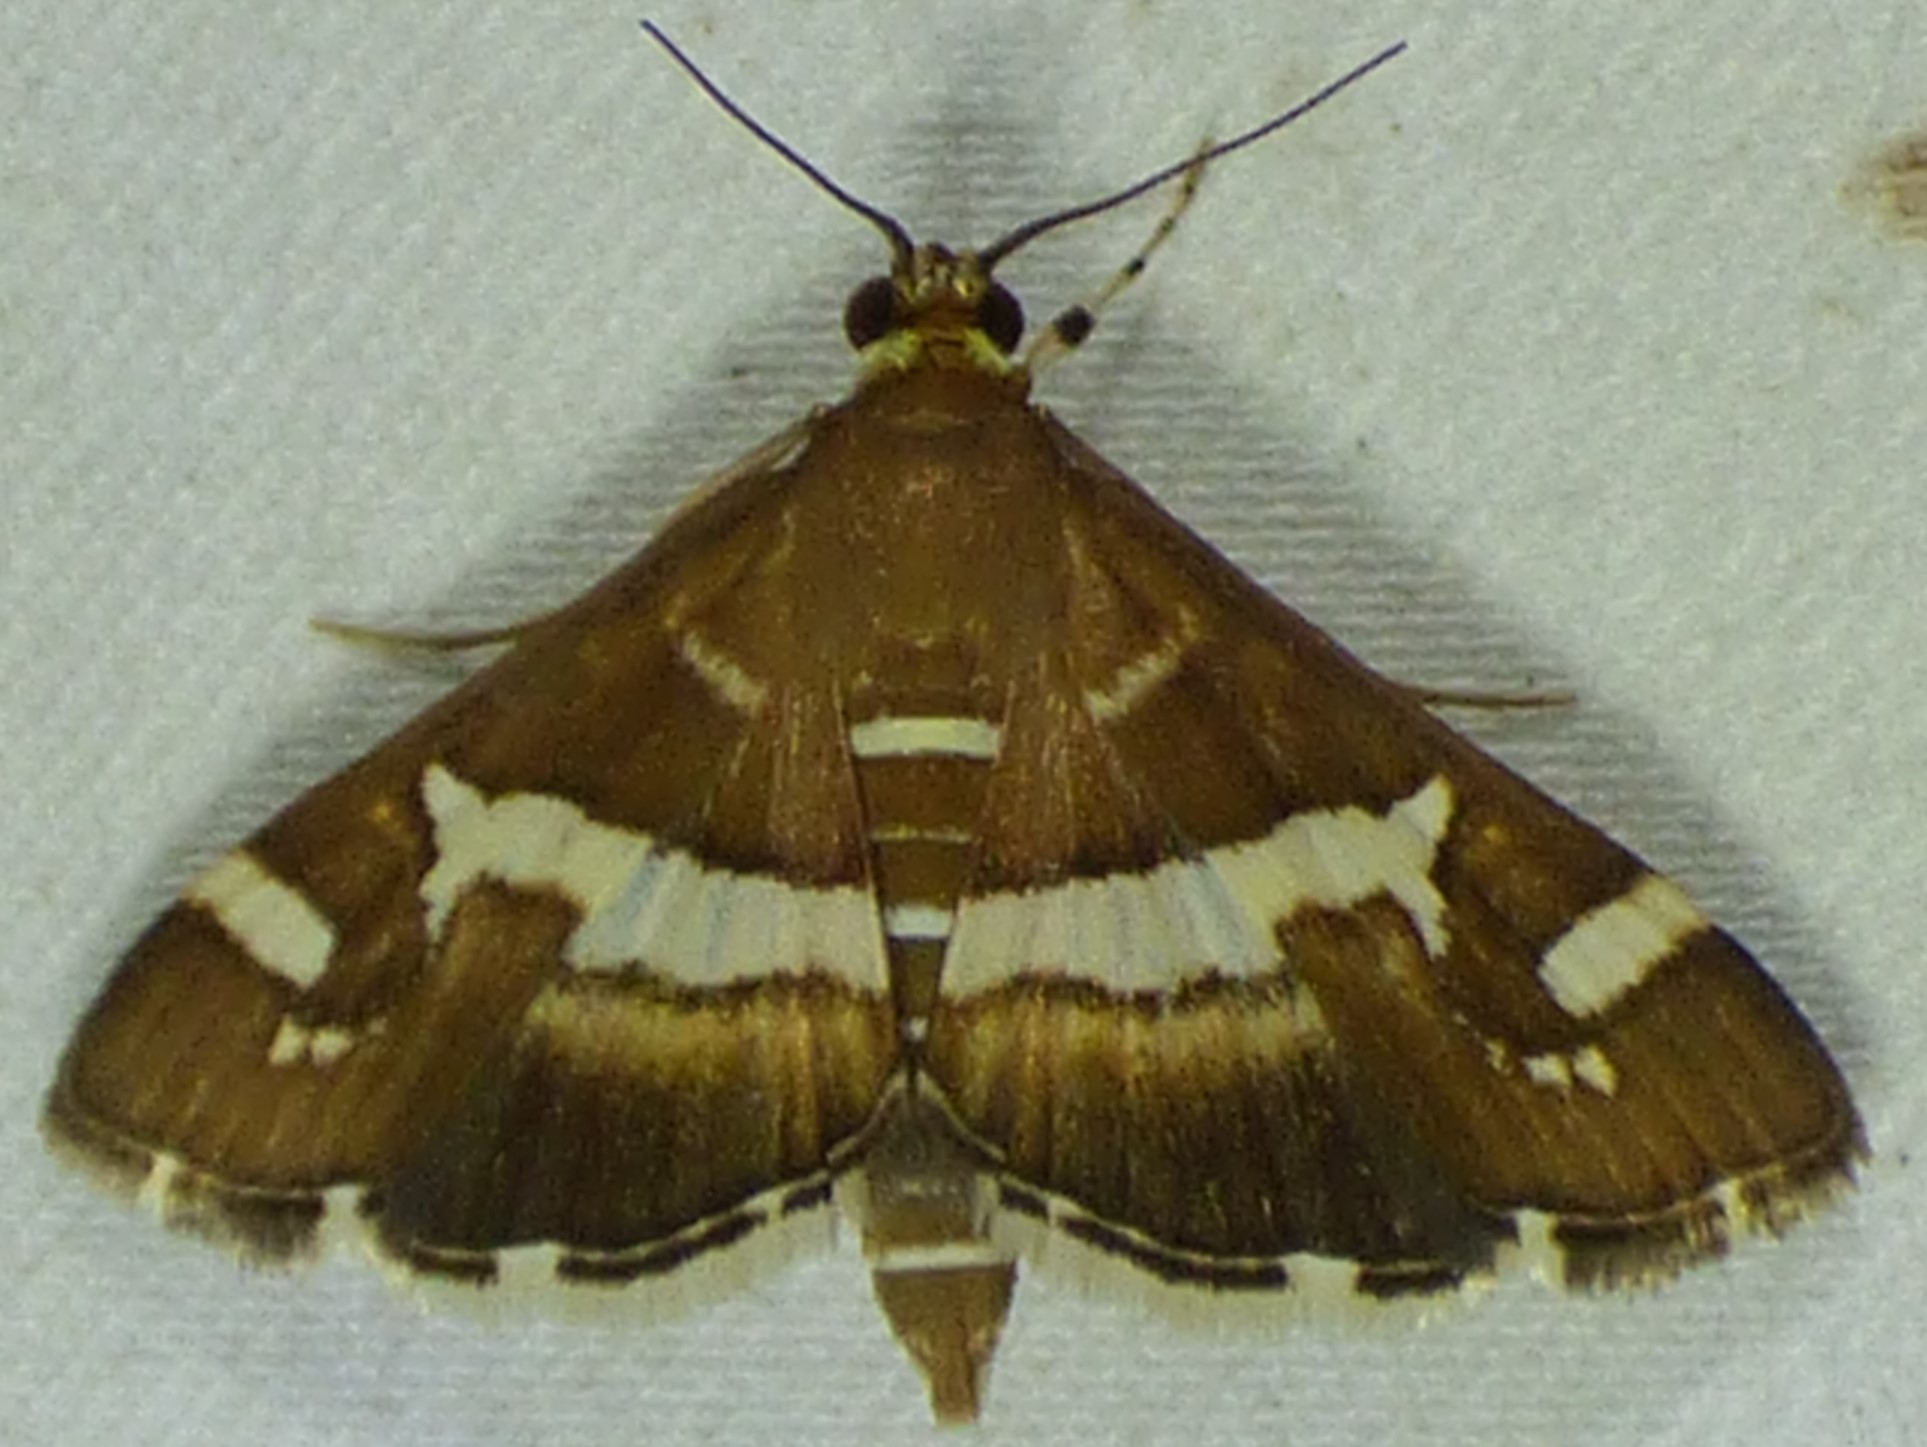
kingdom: Animalia
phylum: Arthropoda
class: Insecta
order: Lepidoptera
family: Crambidae
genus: Spoladea
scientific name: Spoladea recurvalis
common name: Beet webworm moth
